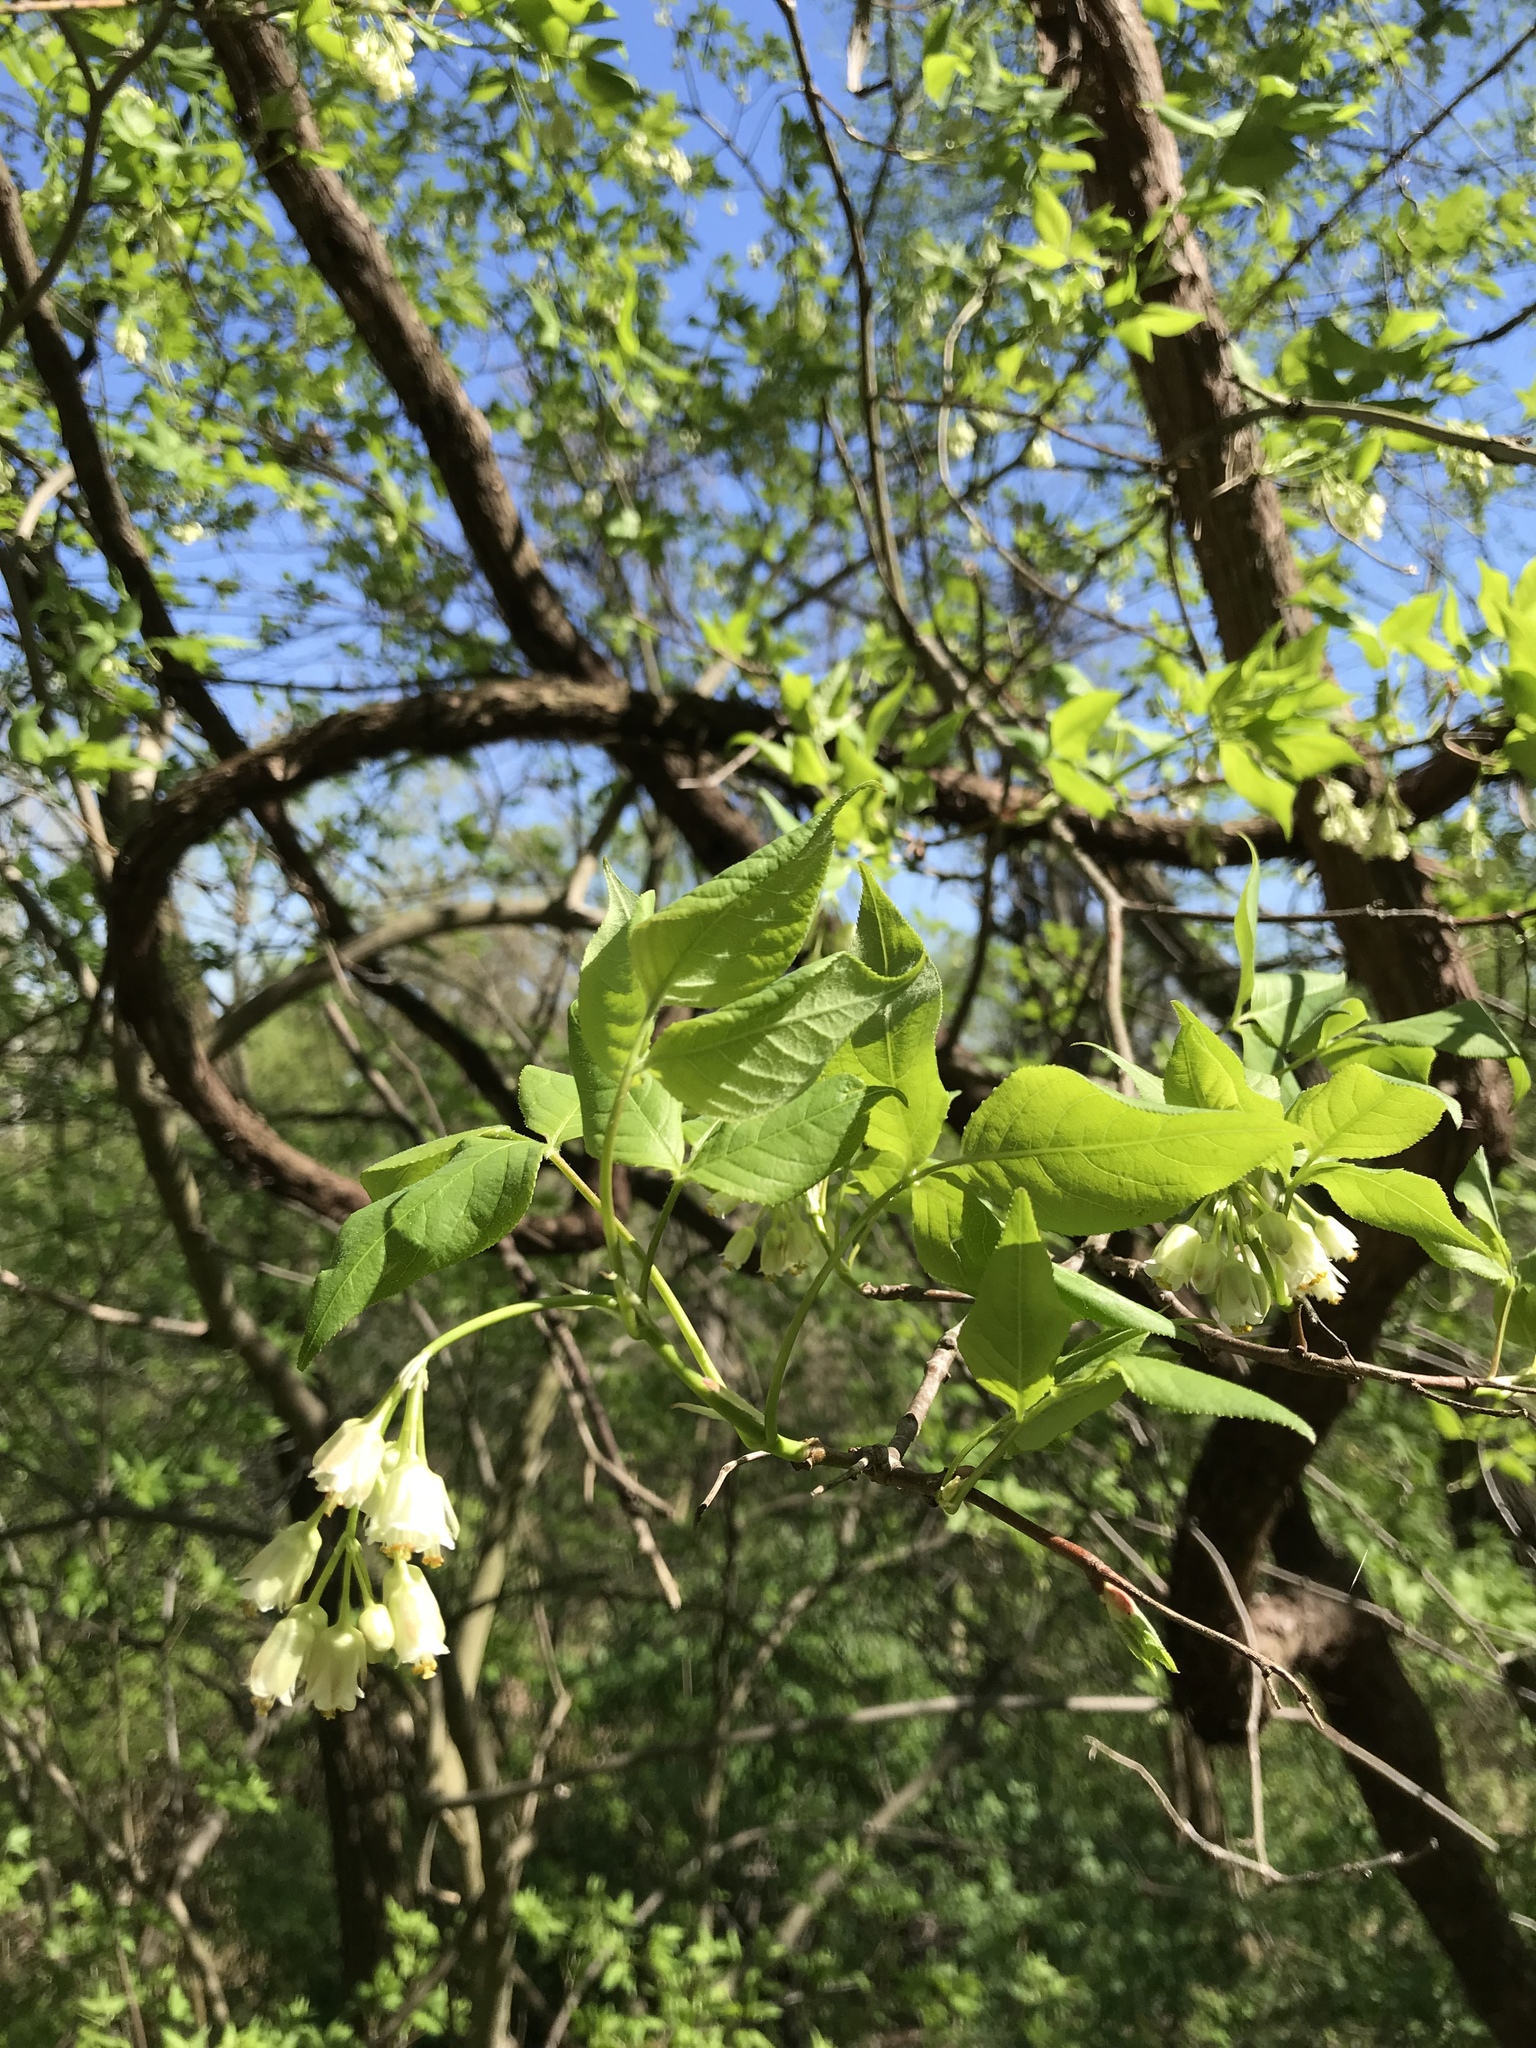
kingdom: Plantae
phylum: Tracheophyta
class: Magnoliopsida
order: Crossosomatales
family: Staphyleaceae
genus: Staphylea
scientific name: Staphylea trifolia
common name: American bladdernut
